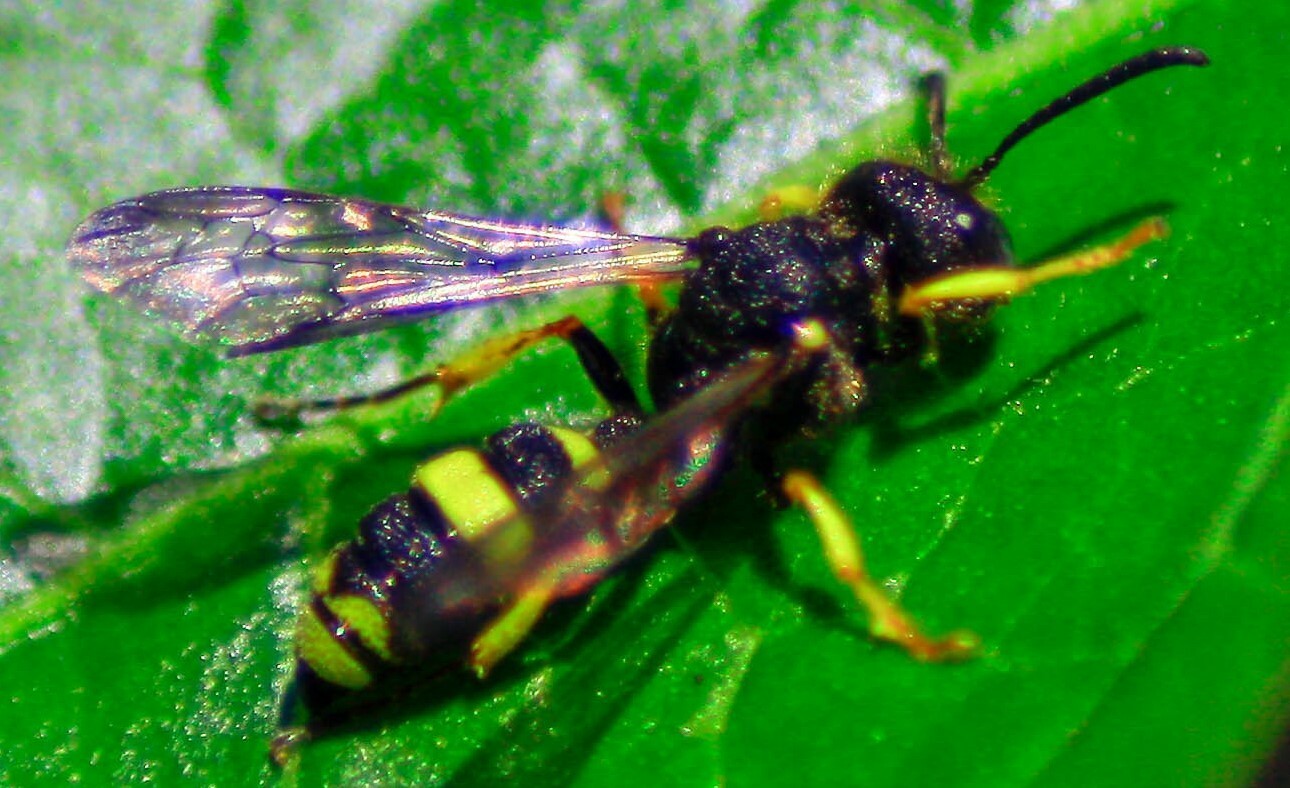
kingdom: Animalia
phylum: Arthropoda
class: Insecta
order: Hymenoptera
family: Crabronidae
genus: Cerceris
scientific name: Cerceris rybyensis
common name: Ornate tailed digger wasp
